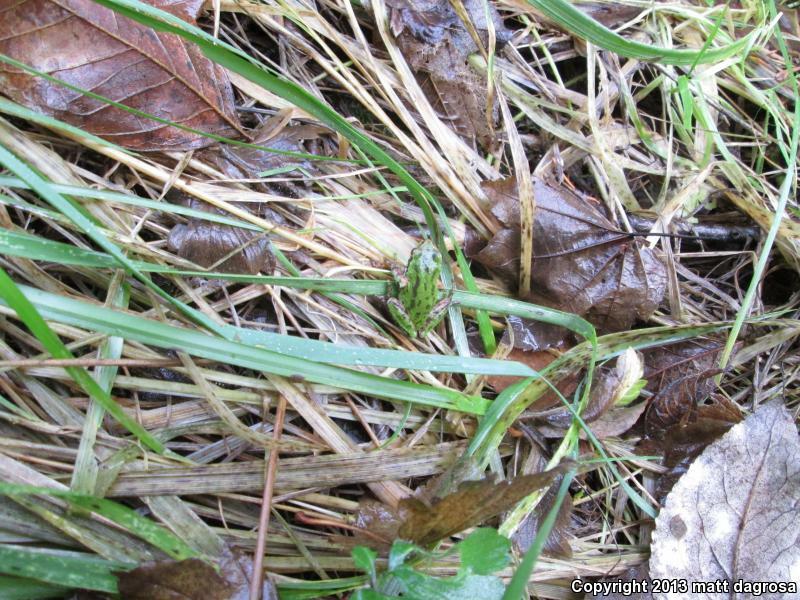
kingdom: Animalia
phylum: Chordata
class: Amphibia
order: Anura
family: Hylidae
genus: Pseudacris
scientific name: Pseudacris regilla
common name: Pacific chorus frog
